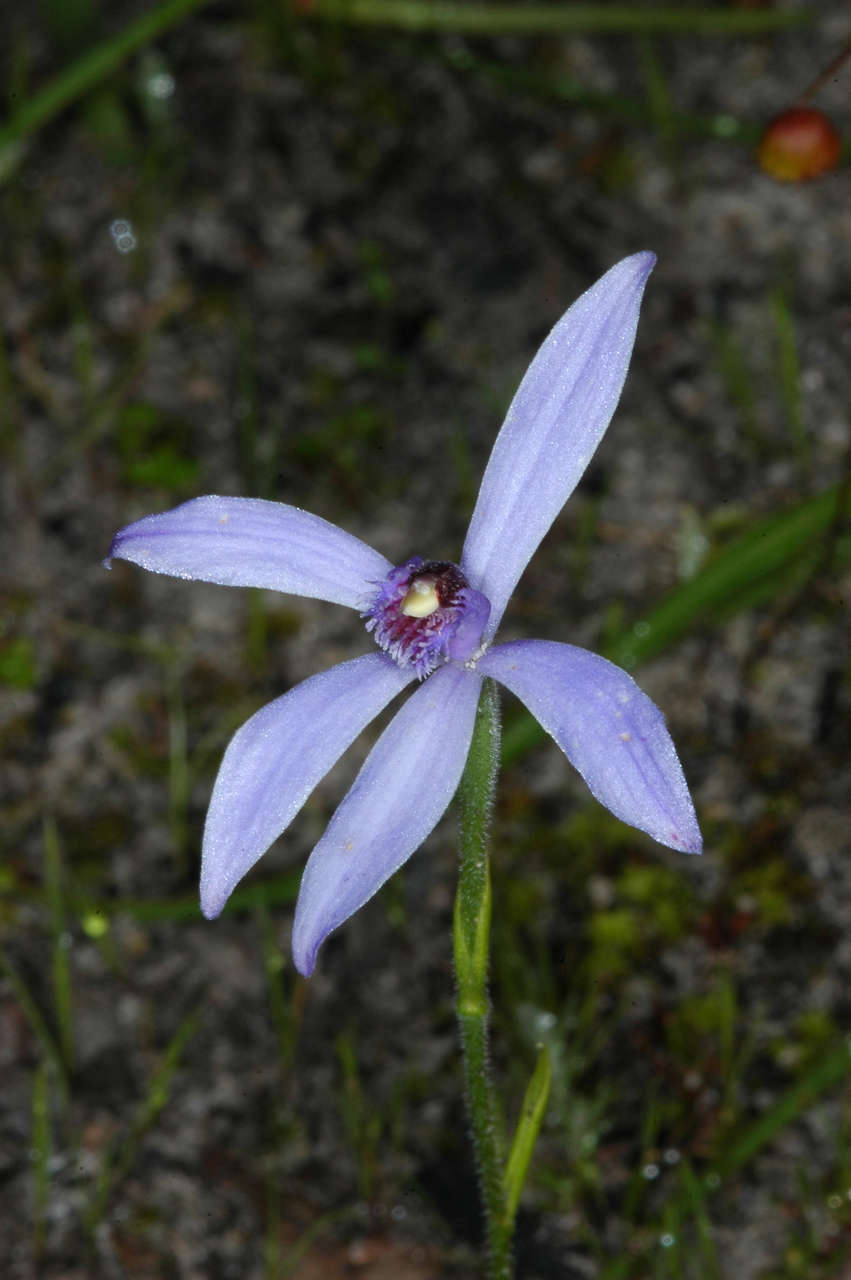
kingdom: Plantae
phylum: Tracheophyta
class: Liliopsida
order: Asparagales
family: Orchidaceae
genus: Pheladenia
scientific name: Pheladenia deformis
